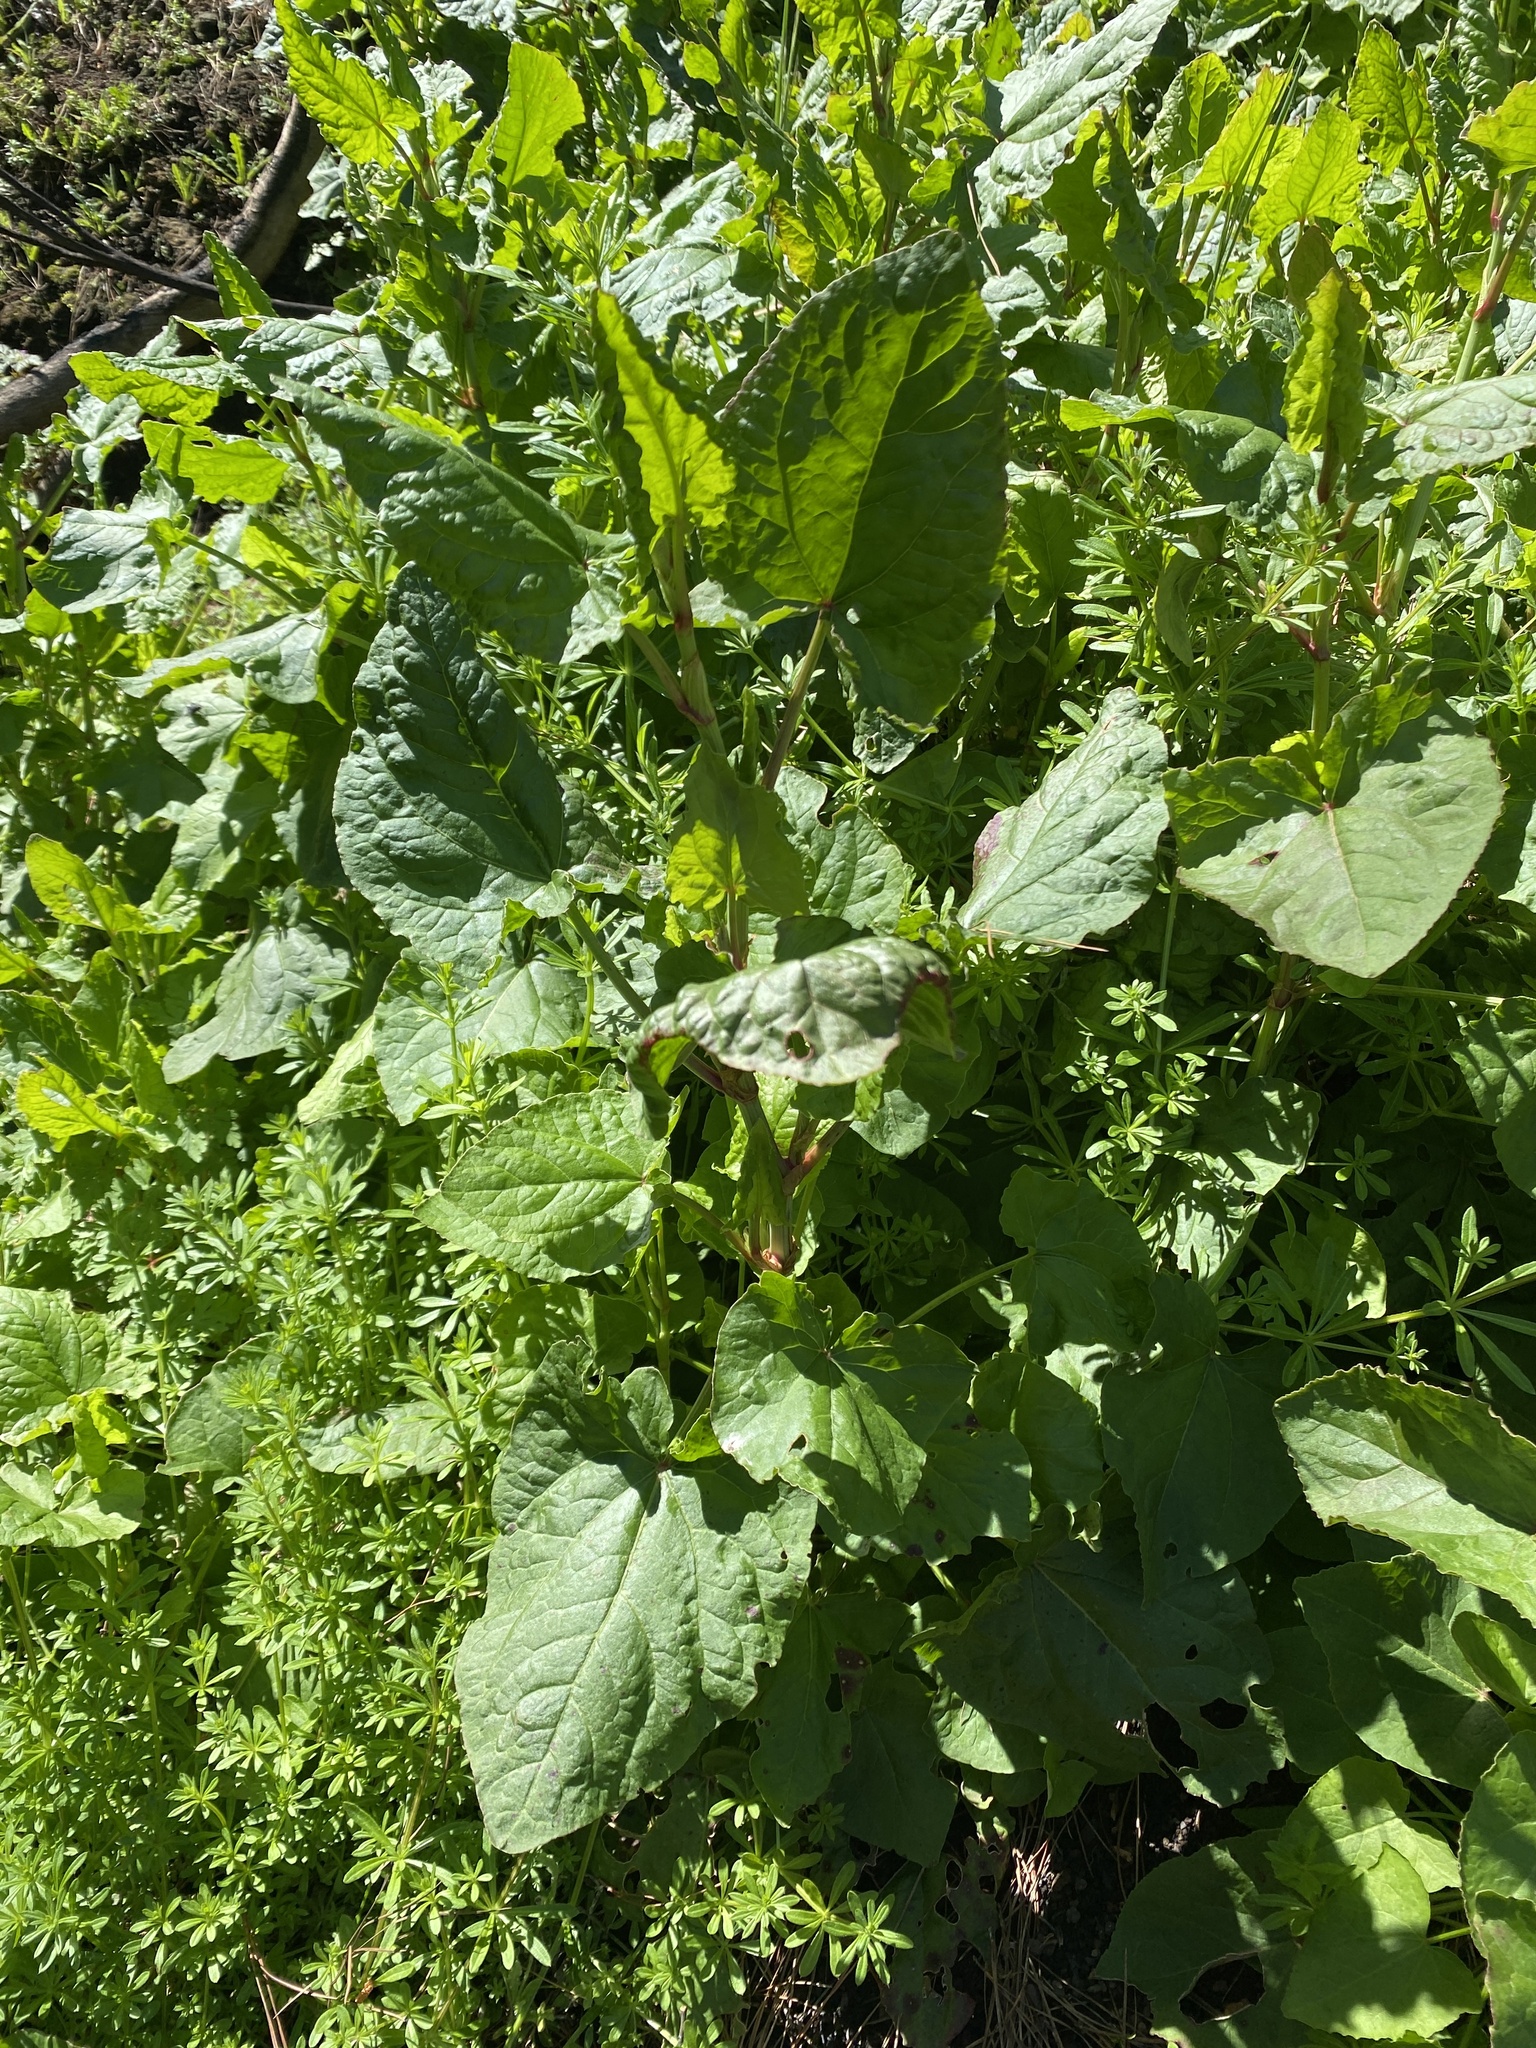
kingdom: Plantae
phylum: Tracheophyta
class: Magnoliopsida
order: Caryophyllales
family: Polygonaceae
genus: Rumex
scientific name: Rumex maderensis
